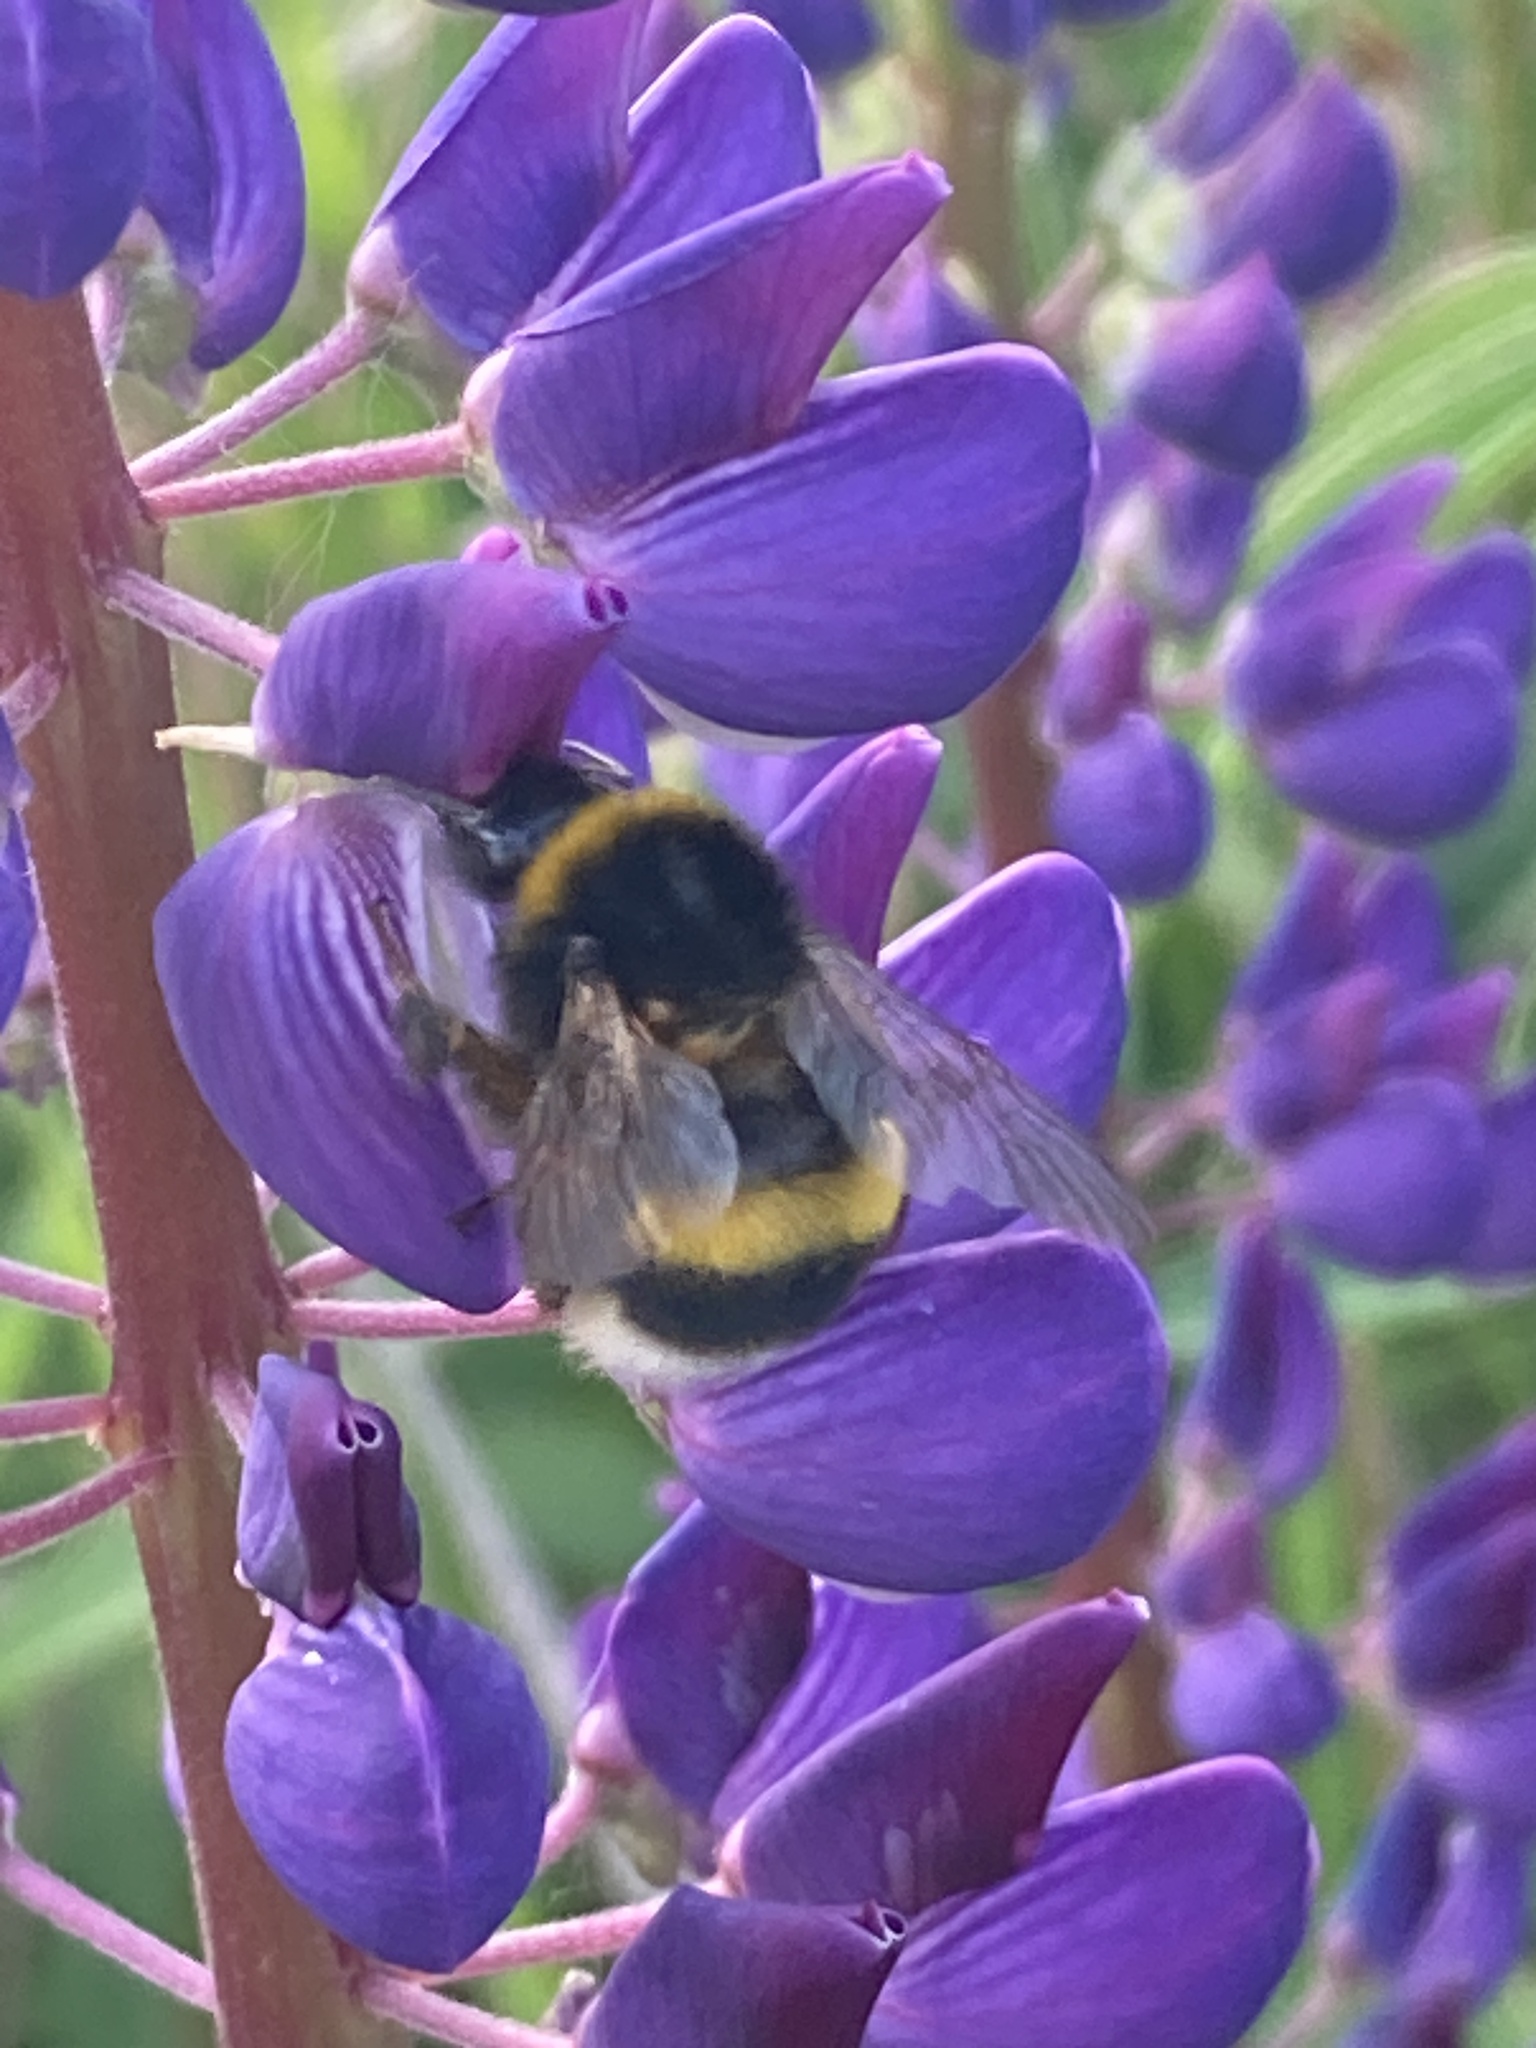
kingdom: Animalia
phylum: Arthropoda
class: Insecta
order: Hymenoptera
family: Apidae
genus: Bombus
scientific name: Bombus
